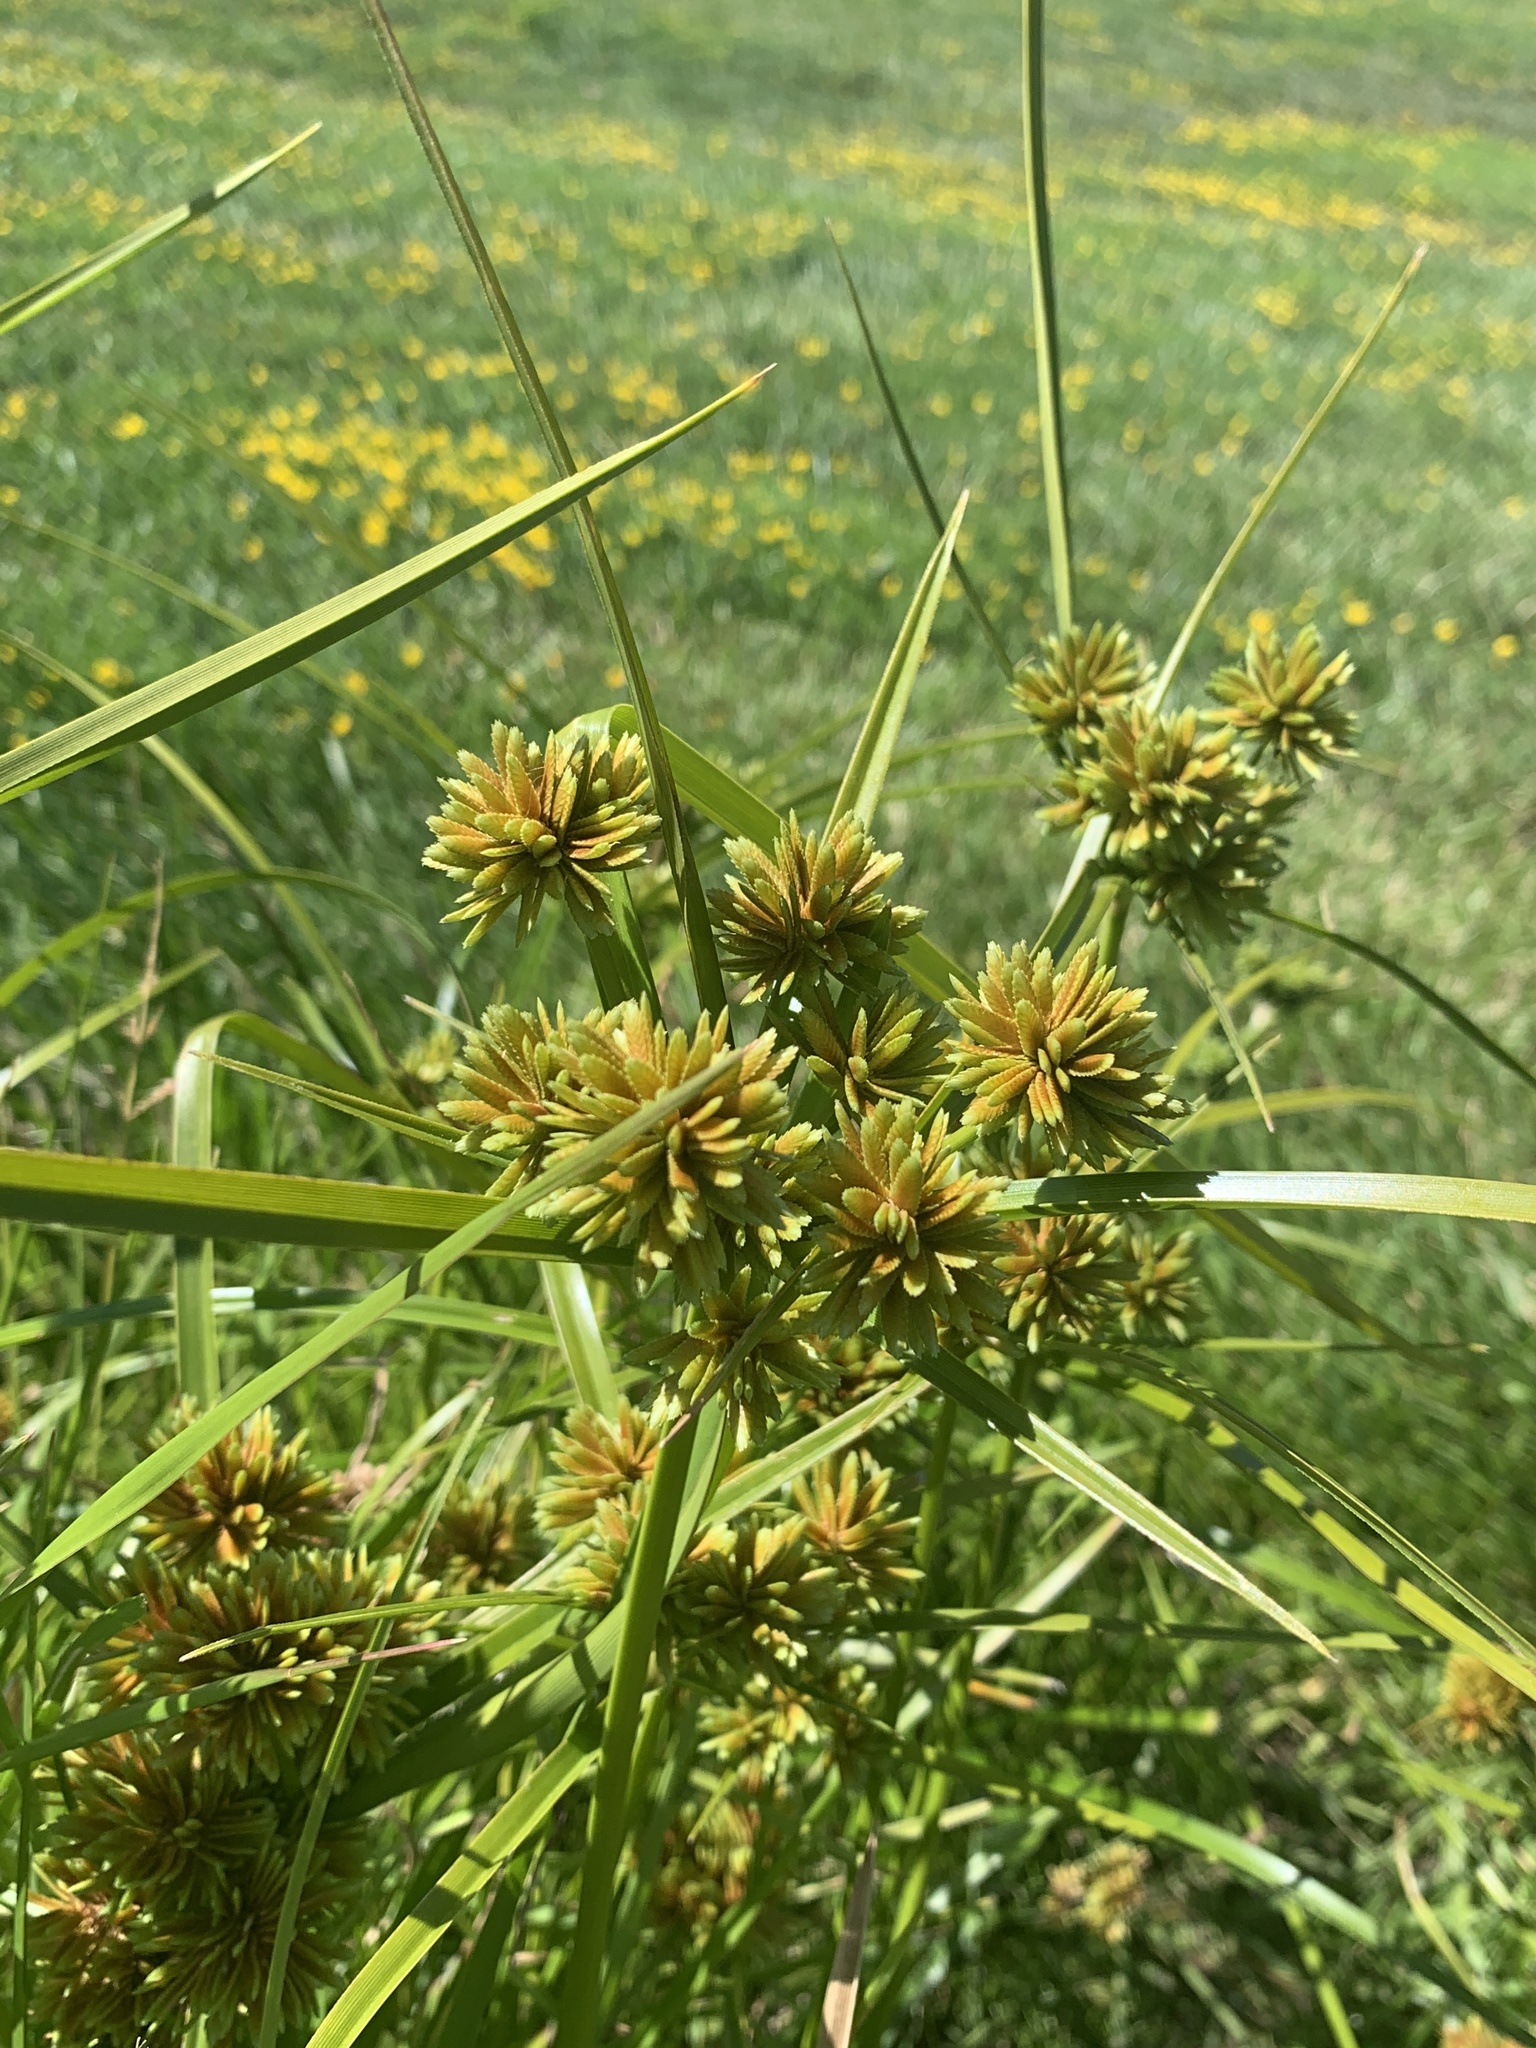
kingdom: Plantae
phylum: Tracheophyta
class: Liliopsida
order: Poales
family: Cyperaceae
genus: Cyperus
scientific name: Cyperus eragrostis
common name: Tall flatsedge
